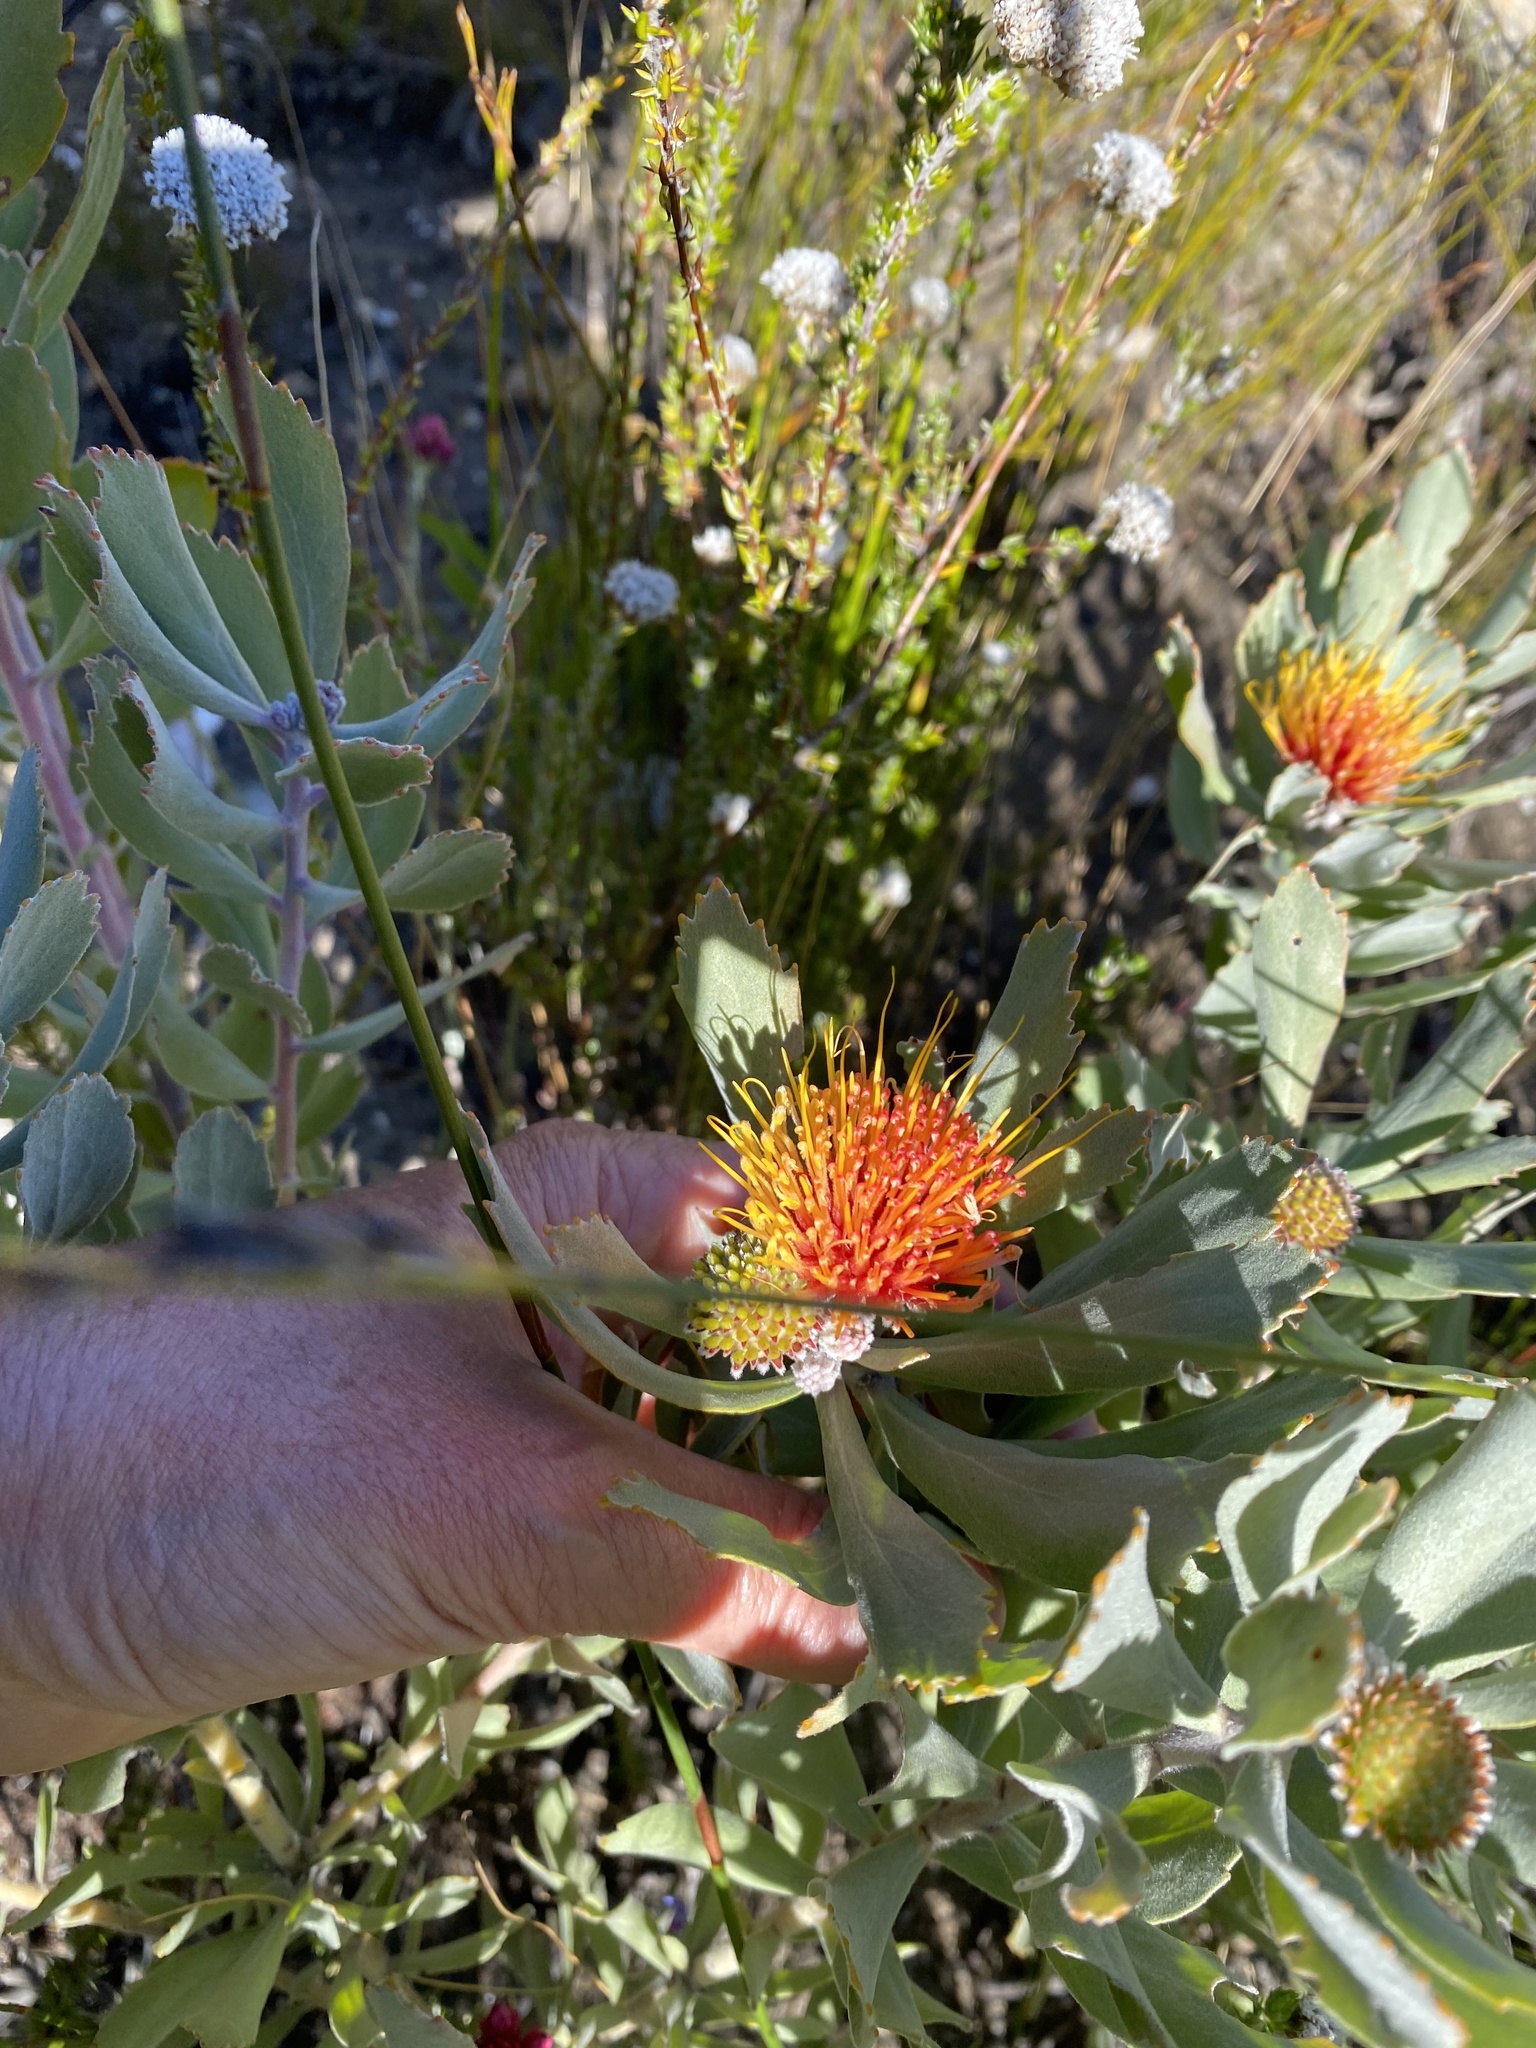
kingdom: Plantae
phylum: Tracheophyta
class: Magnoliopsida
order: Proteales
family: Proteaceae
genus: Leucospermum
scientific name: Leucospermum mundii
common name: Langeberg pincushion
